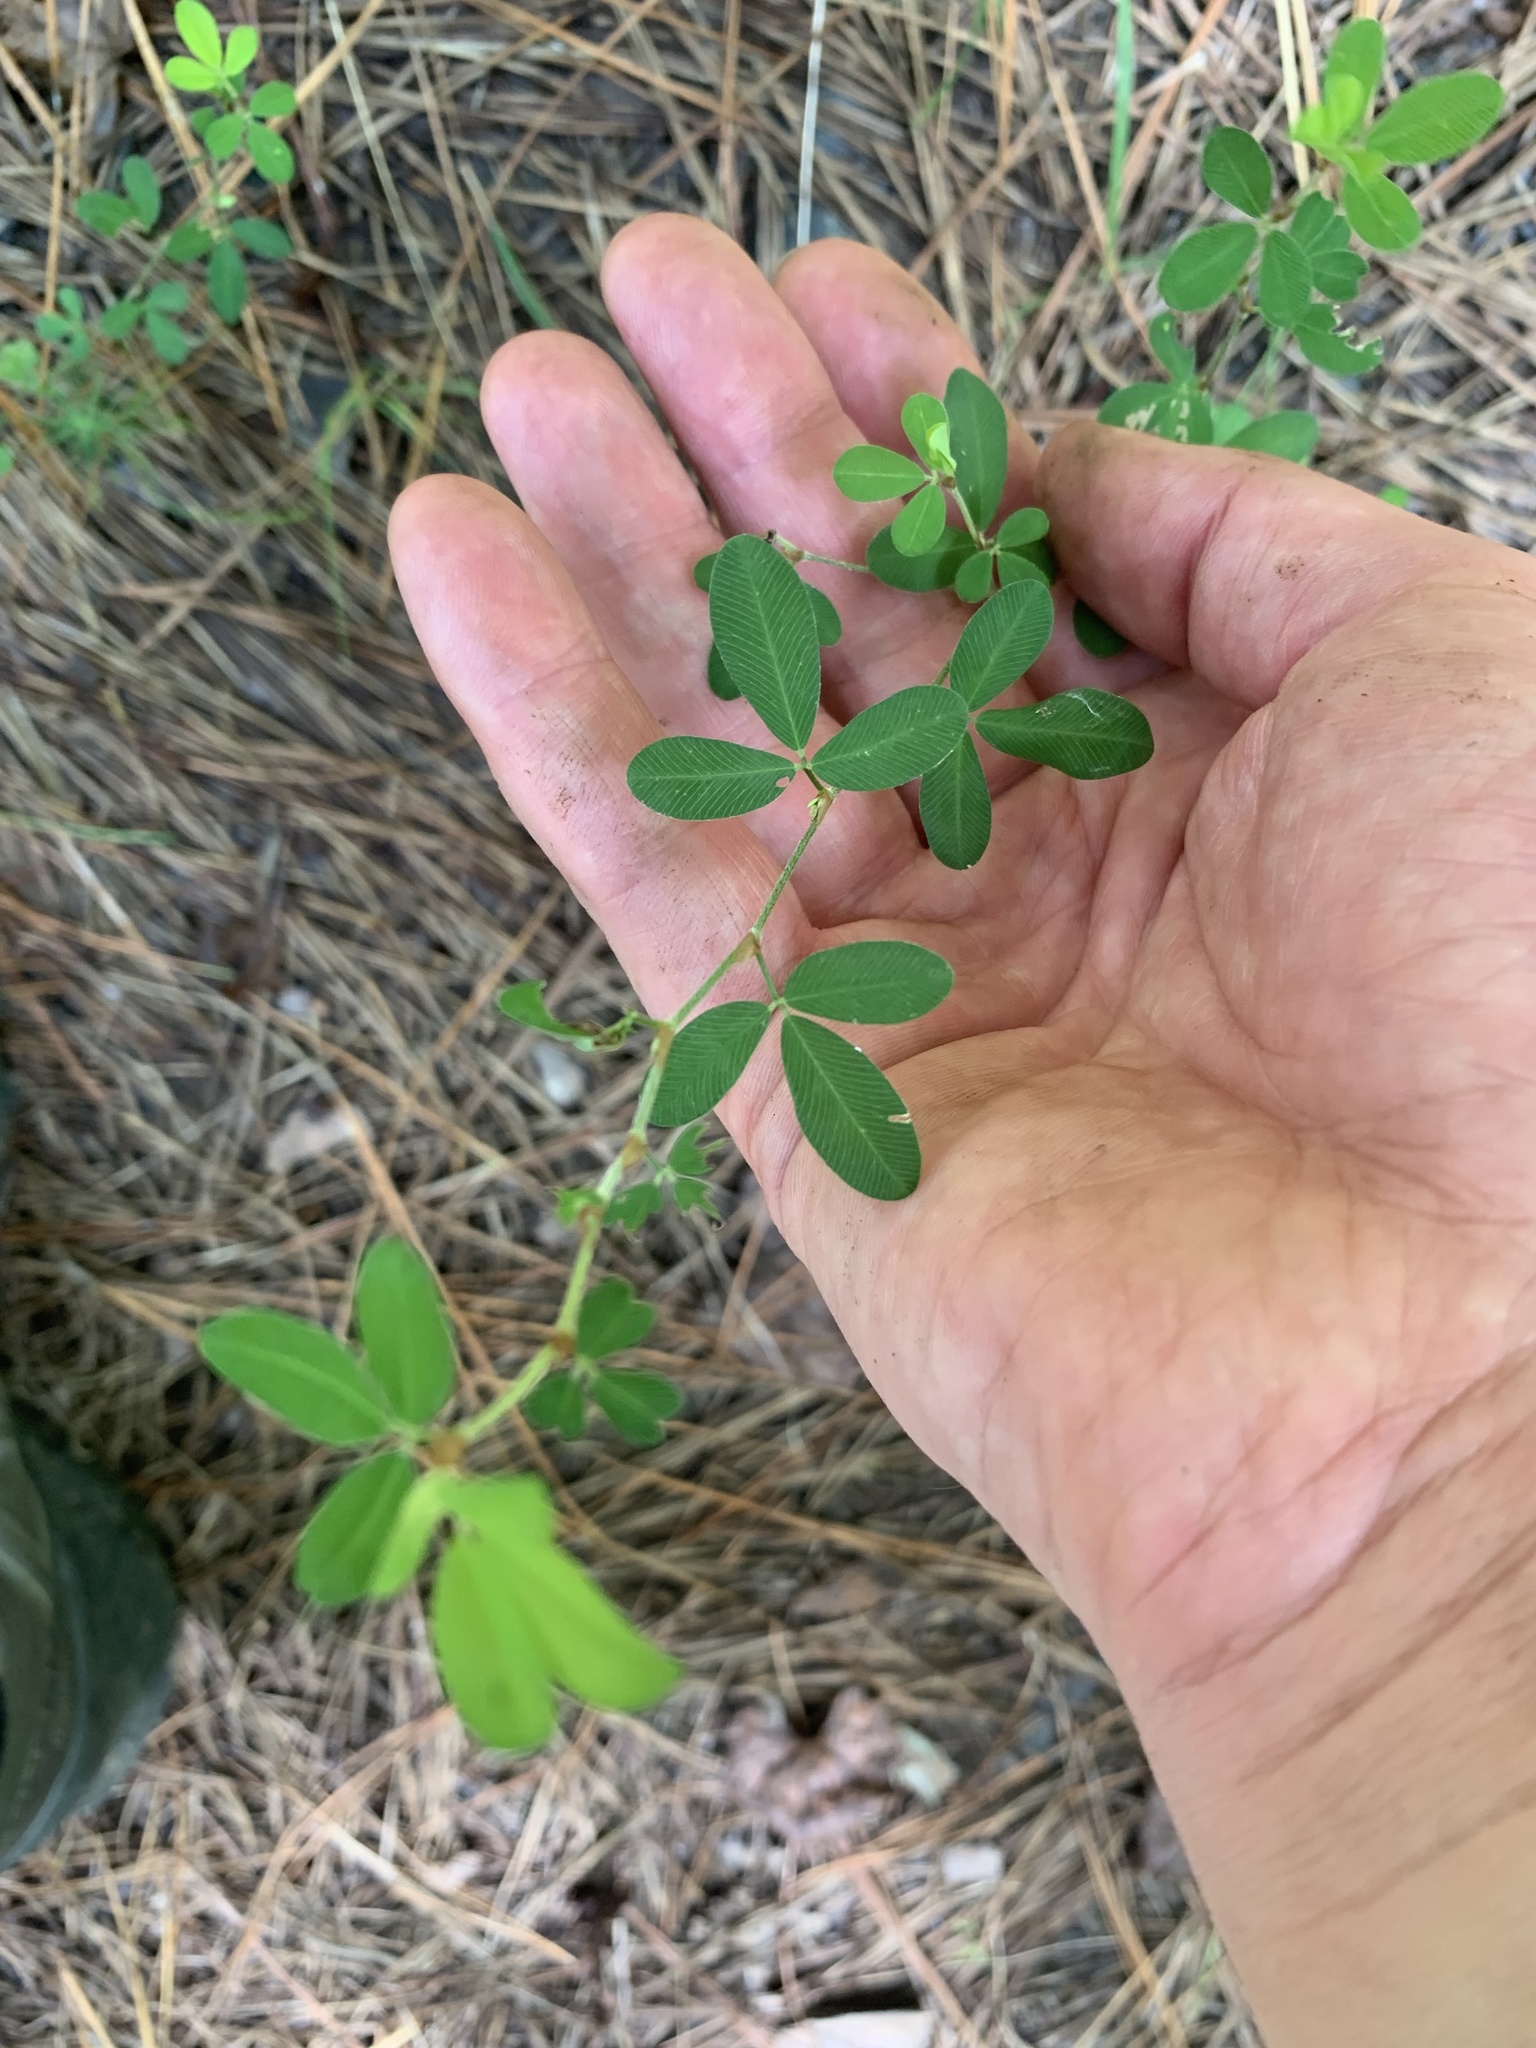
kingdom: Plantae
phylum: Tracheophyta
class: Magnoliopsida
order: Fabales
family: Fabaceae
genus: Kummerowia
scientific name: Kummerowia striata
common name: Japanese clover
